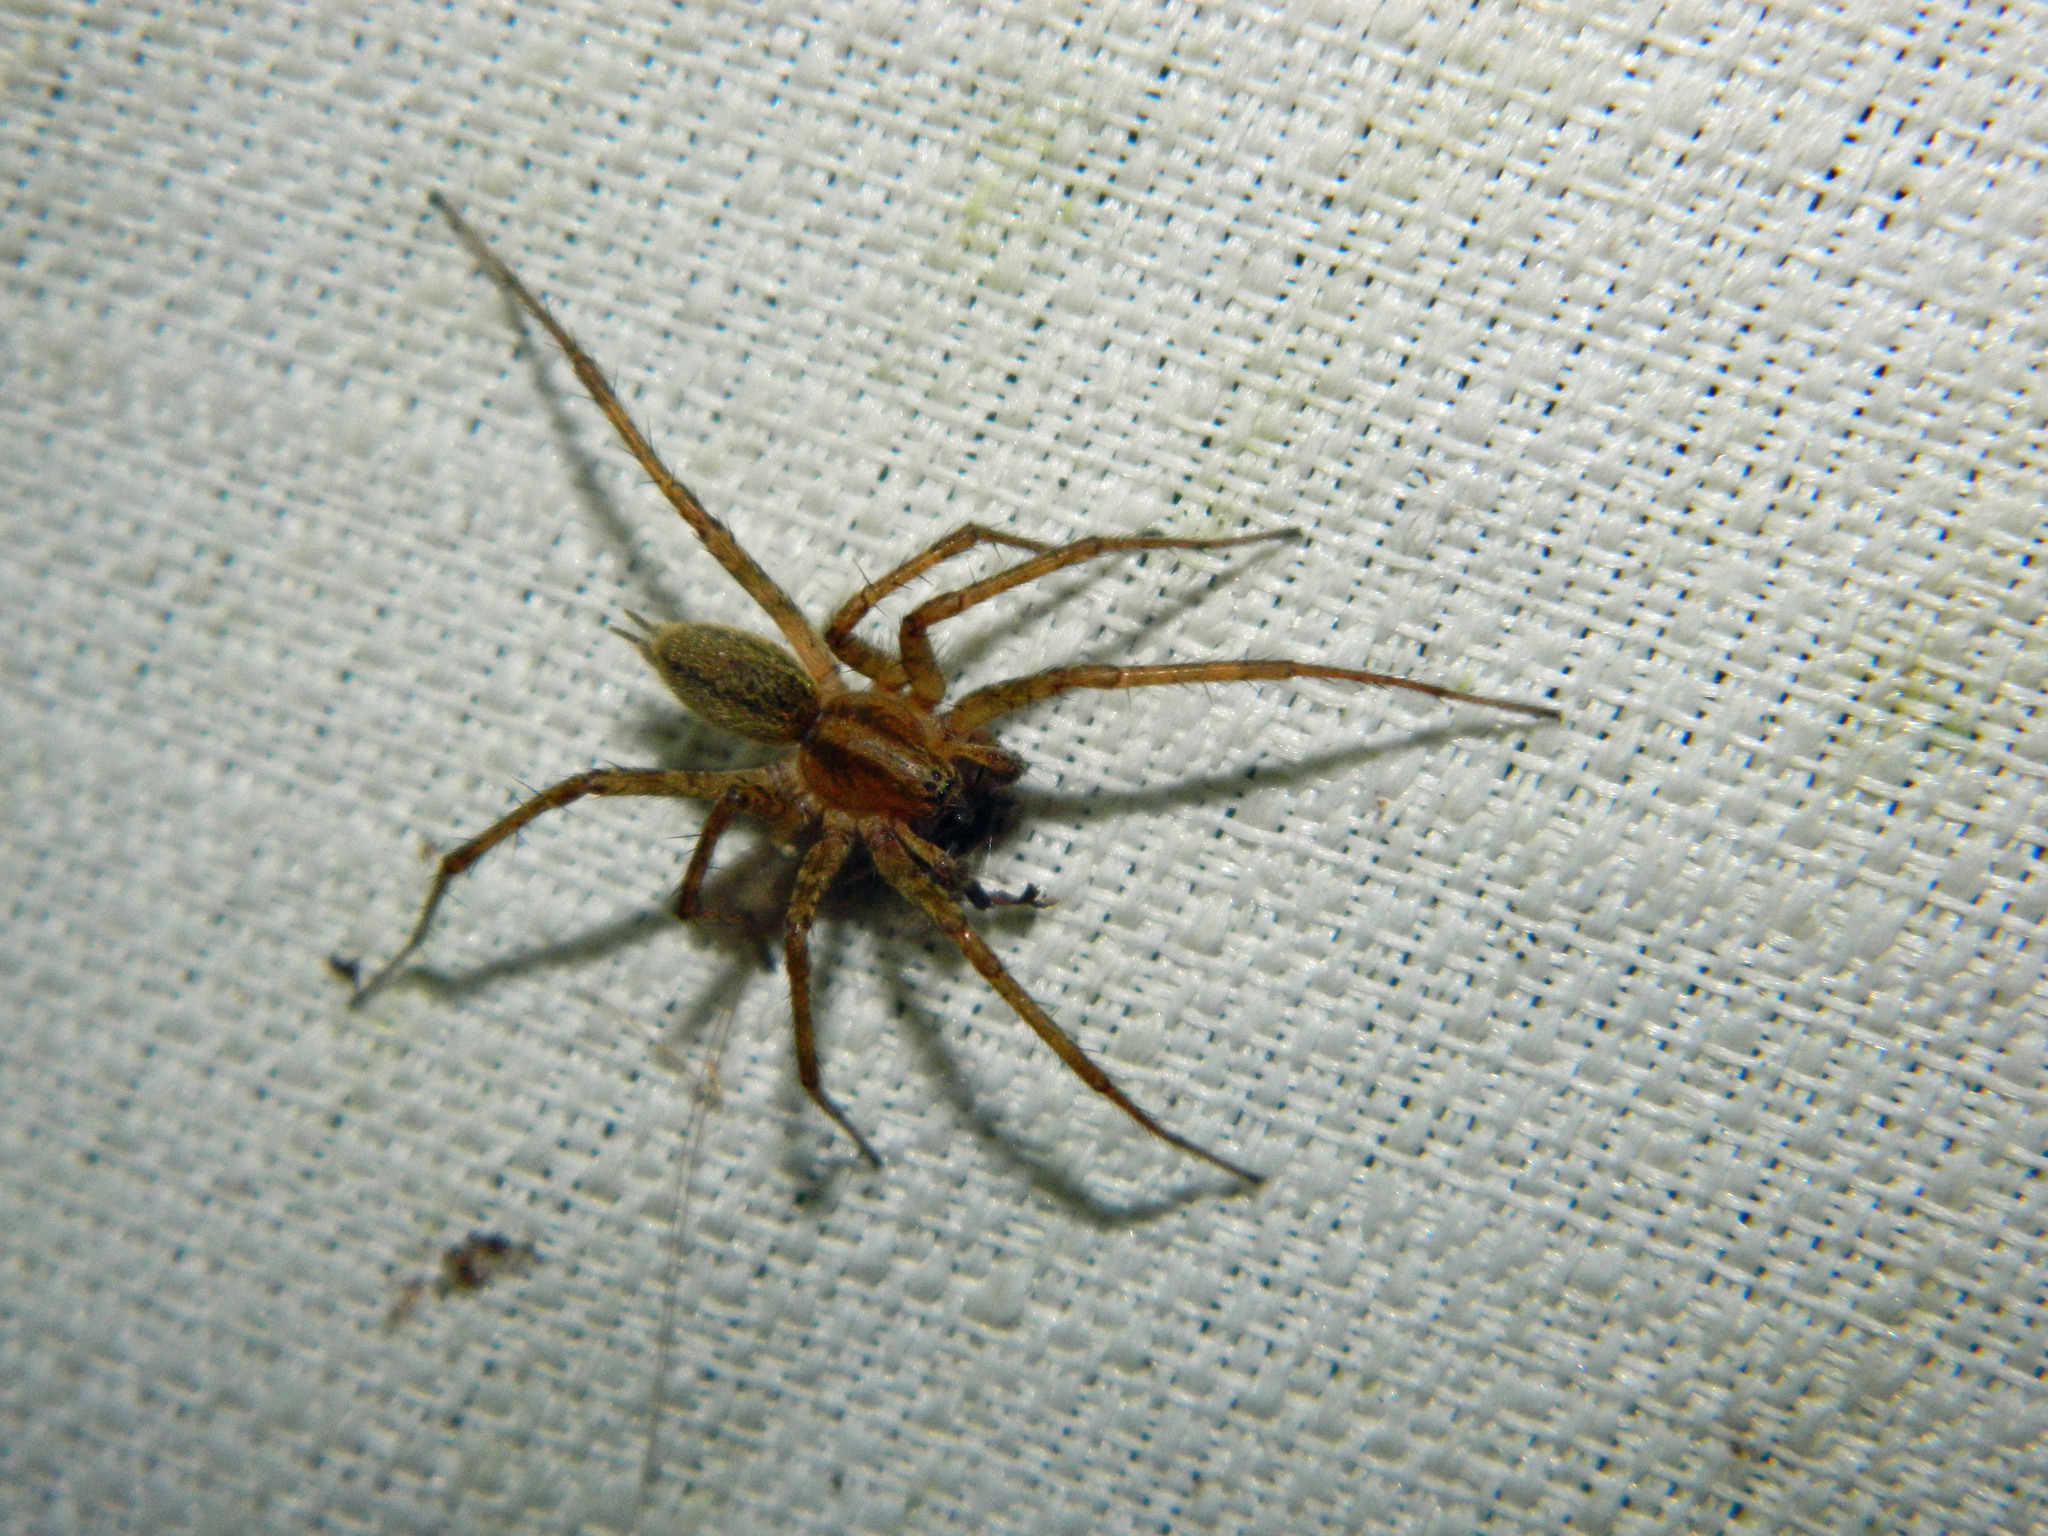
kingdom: Animalia
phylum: Arthropoda
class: Arachnida
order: Araneae
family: Agelenidae
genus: Agelenopsis
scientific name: Agelenopsis
